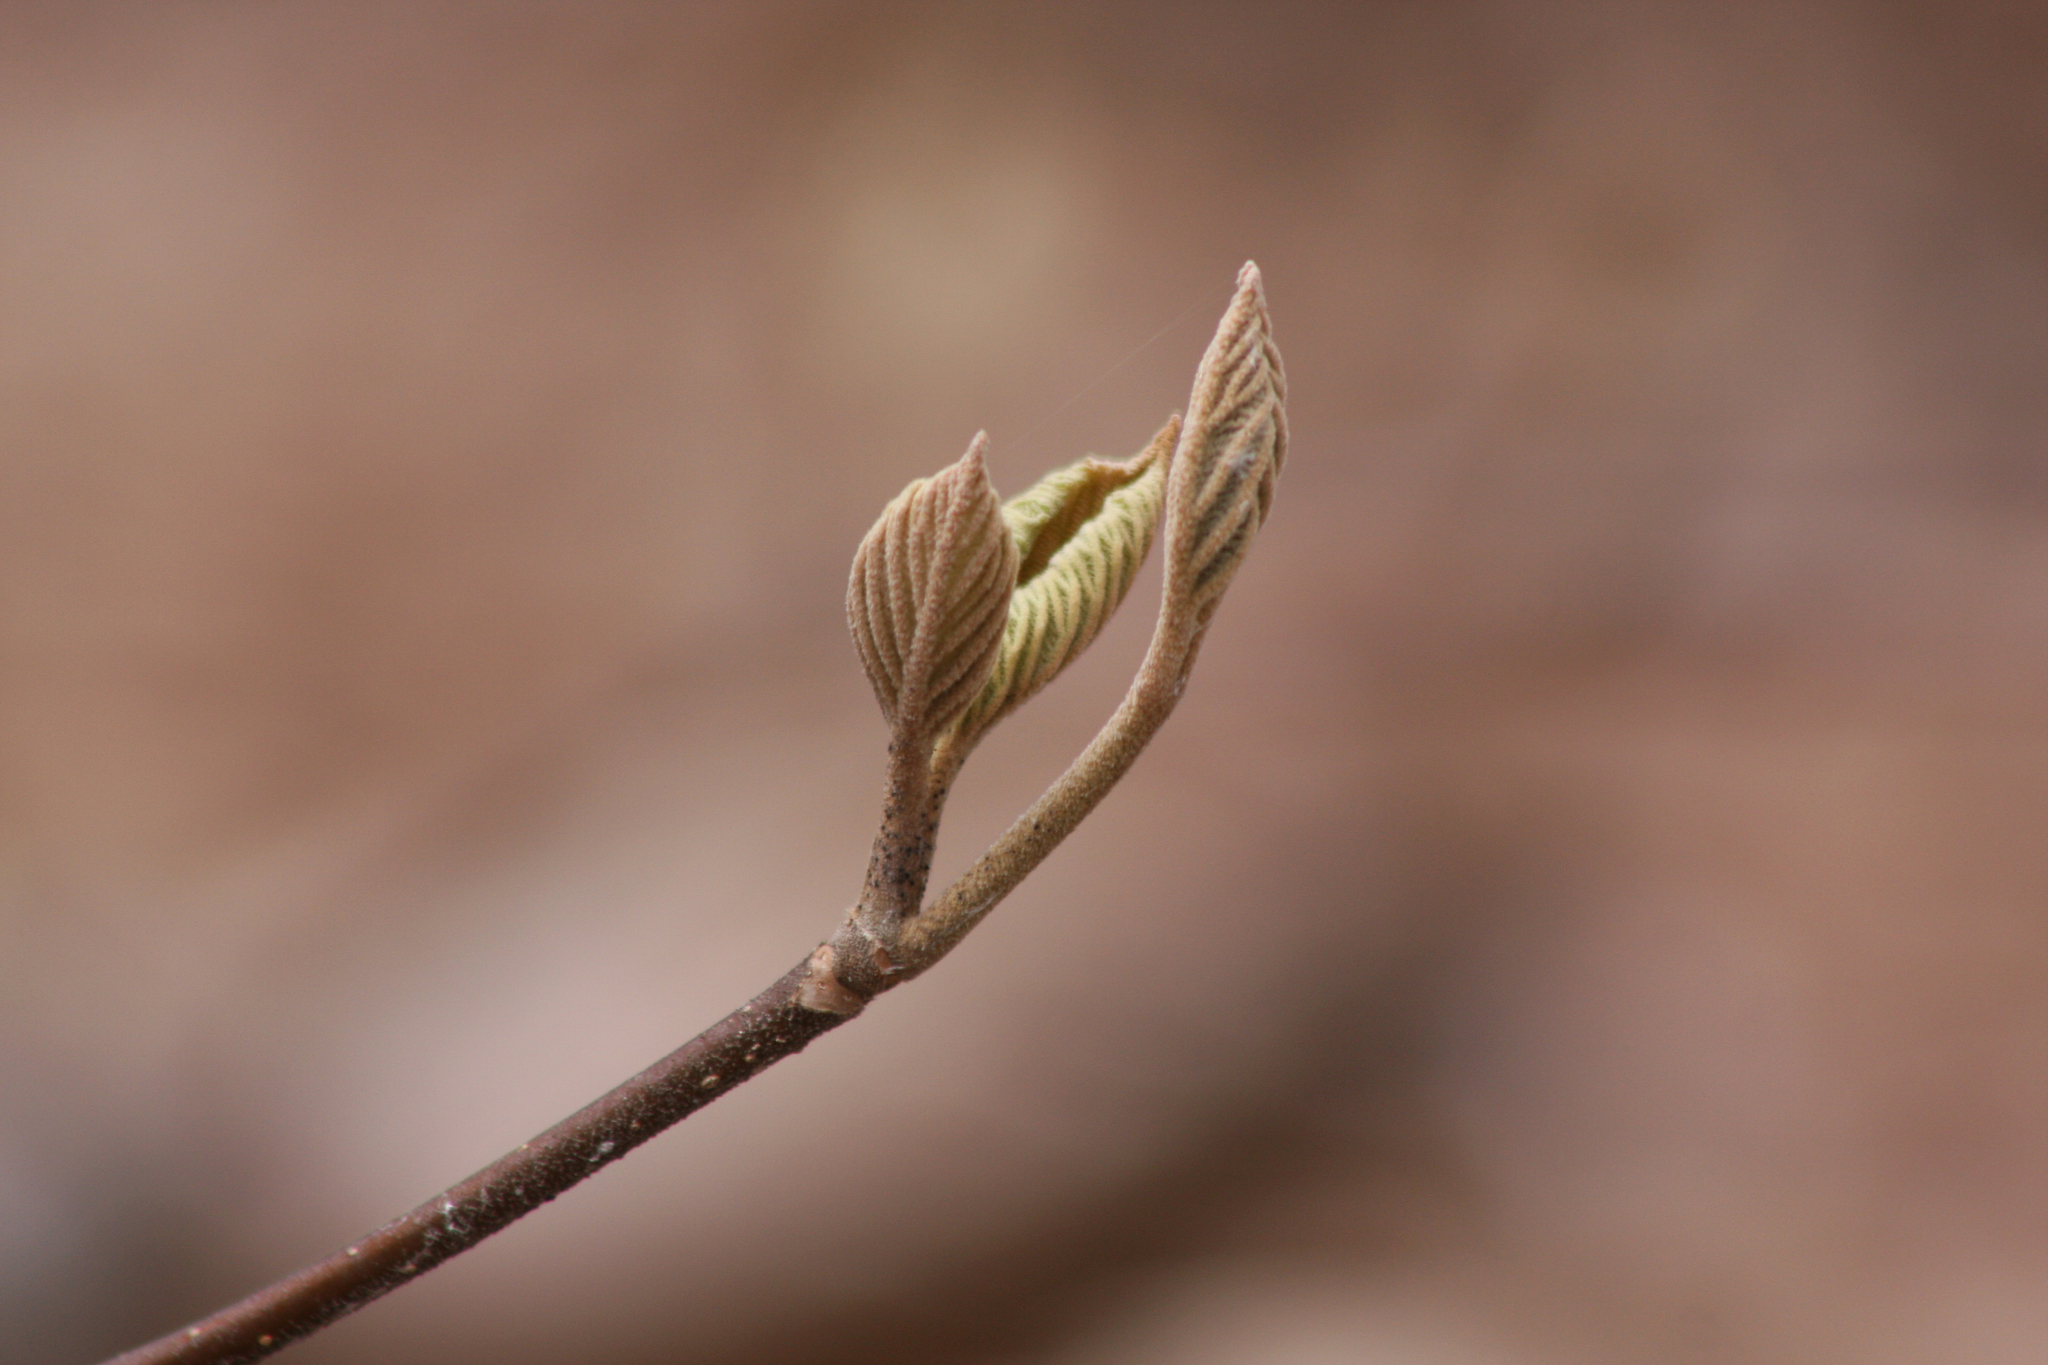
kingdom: Plantae
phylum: Tracheophyta
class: Magnoliopsida
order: Dipsacales
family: Viburnaceae
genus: Viburnum
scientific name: Viburnum lantanoides
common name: Hobblebush
